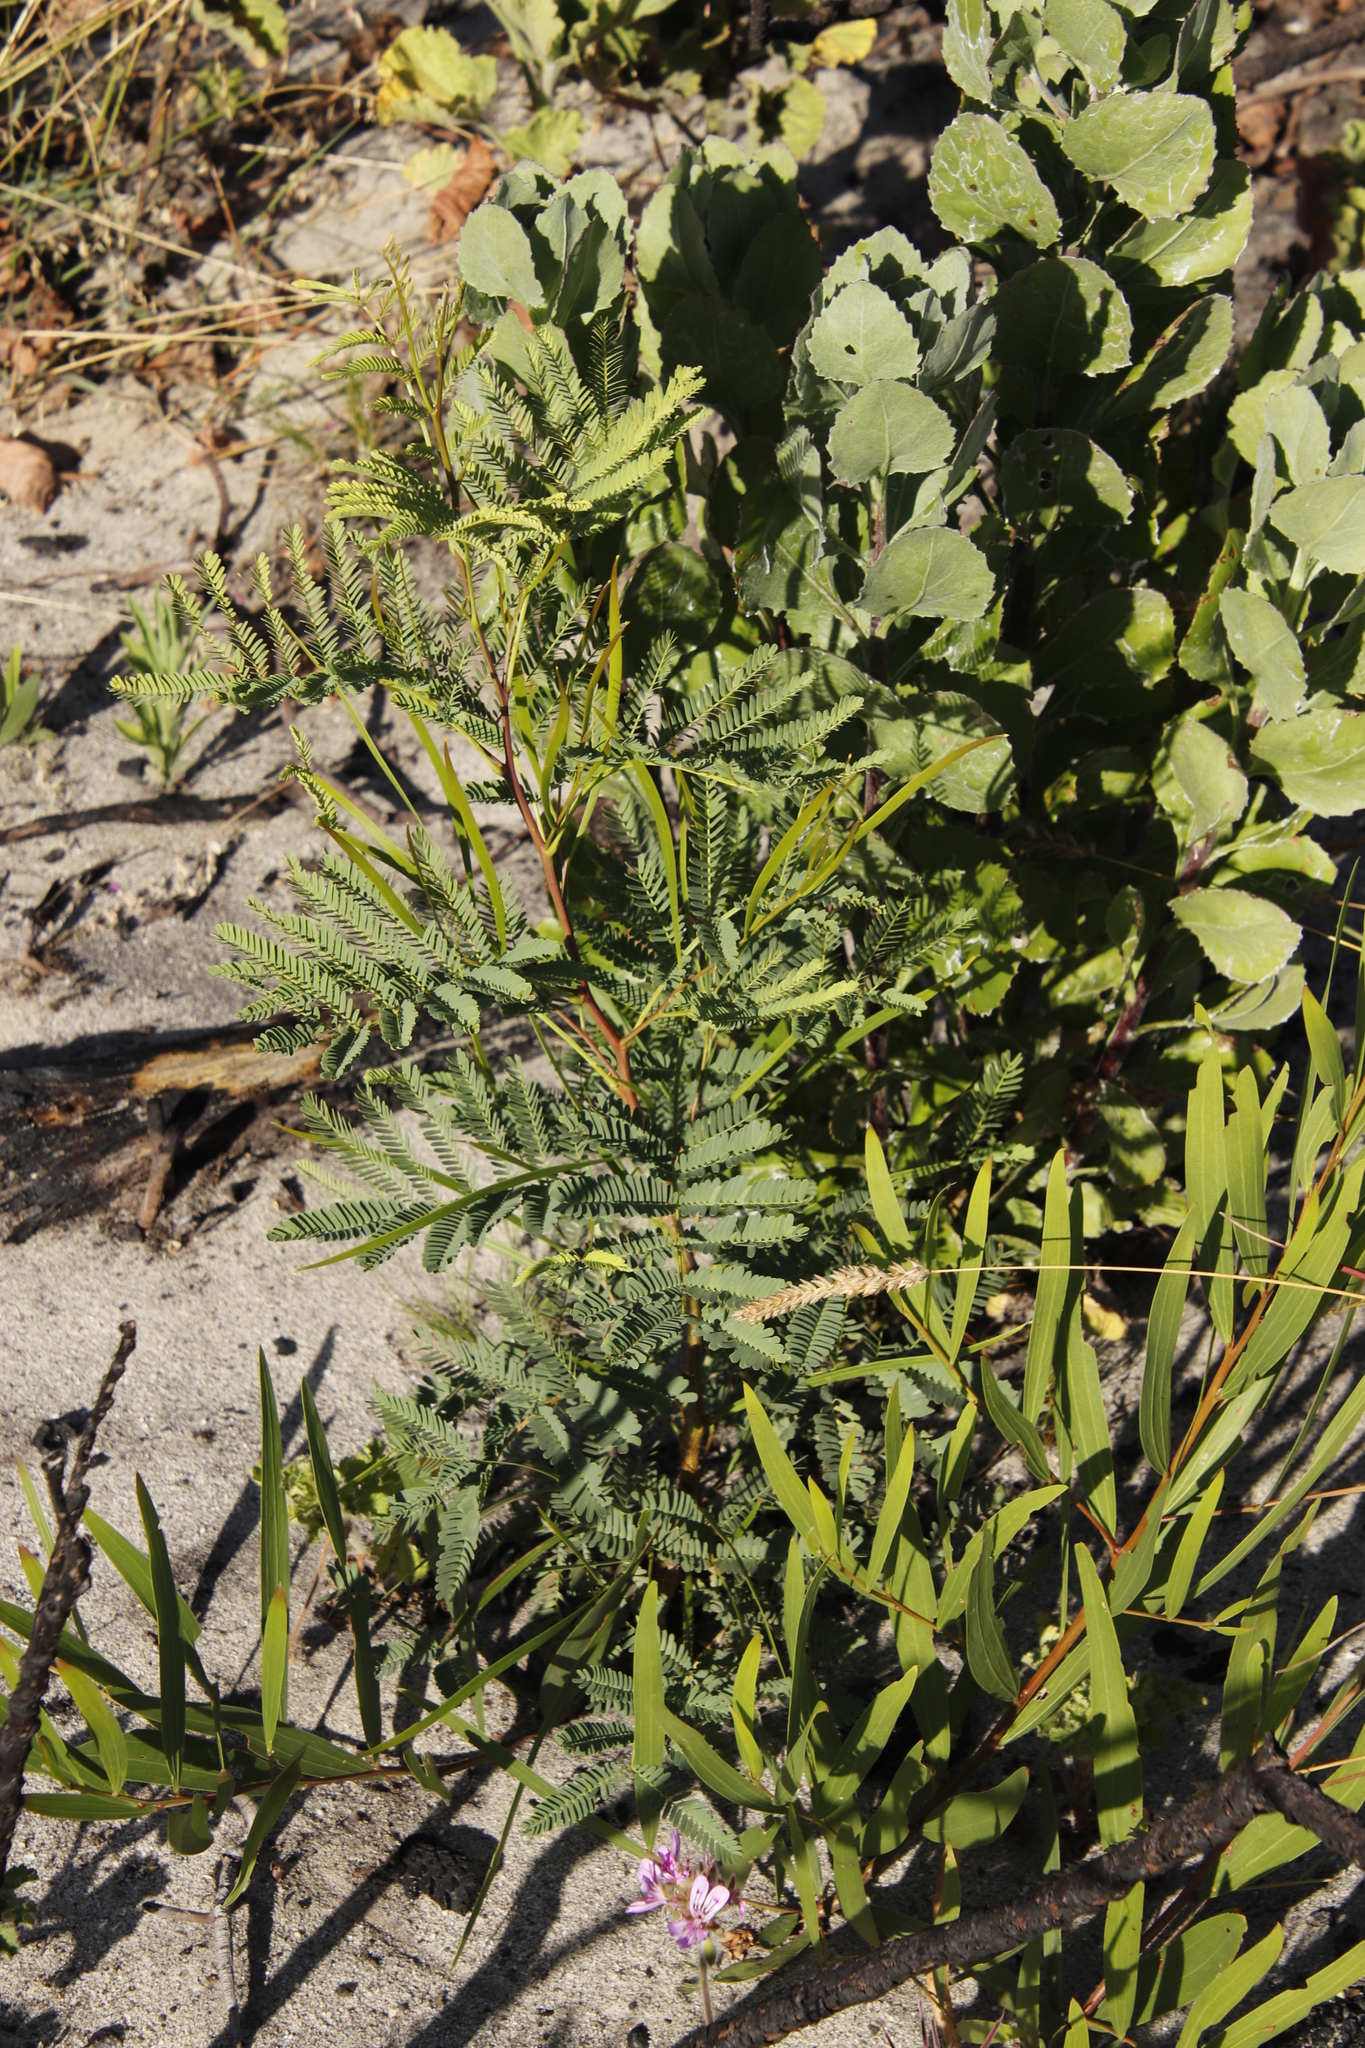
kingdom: Plantae
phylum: Tracheophyta
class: Magnoliopsida
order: Fabales
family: Fabaceae
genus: Acacia
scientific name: Acacia implexa
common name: Black wattle
